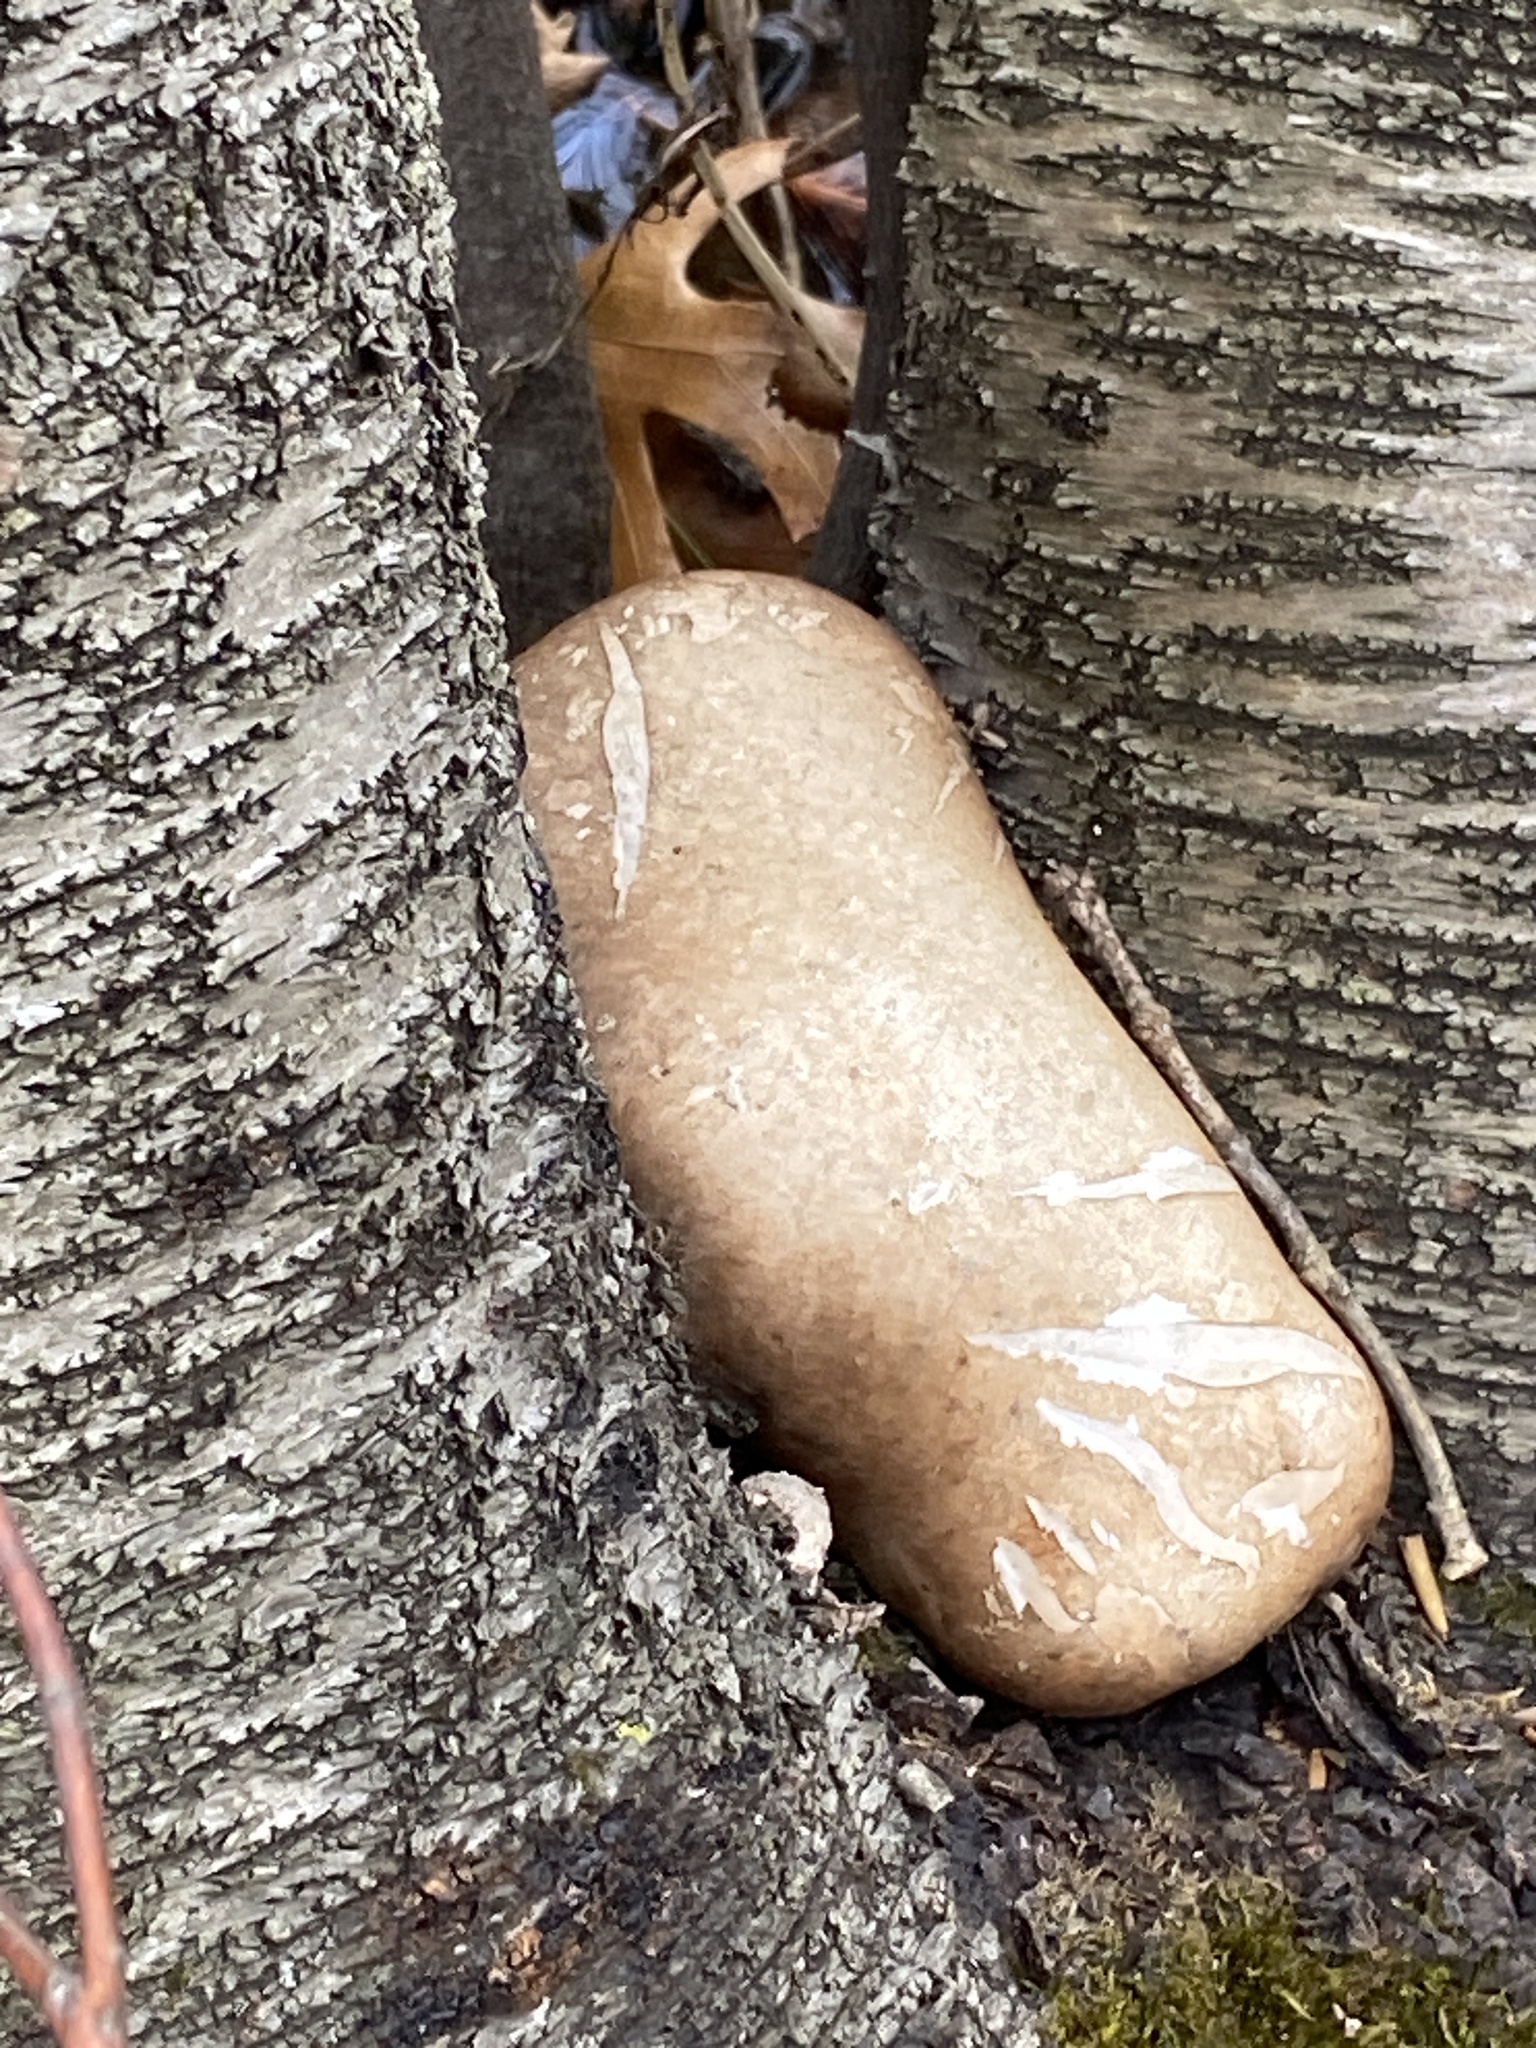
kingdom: Fungi
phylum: Basidiomycota
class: Agaricomycetes
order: Polyporales
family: Fomitopsidaceae
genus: Fomitopsis
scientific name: Fomitopsis betulina
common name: Birch polypore
